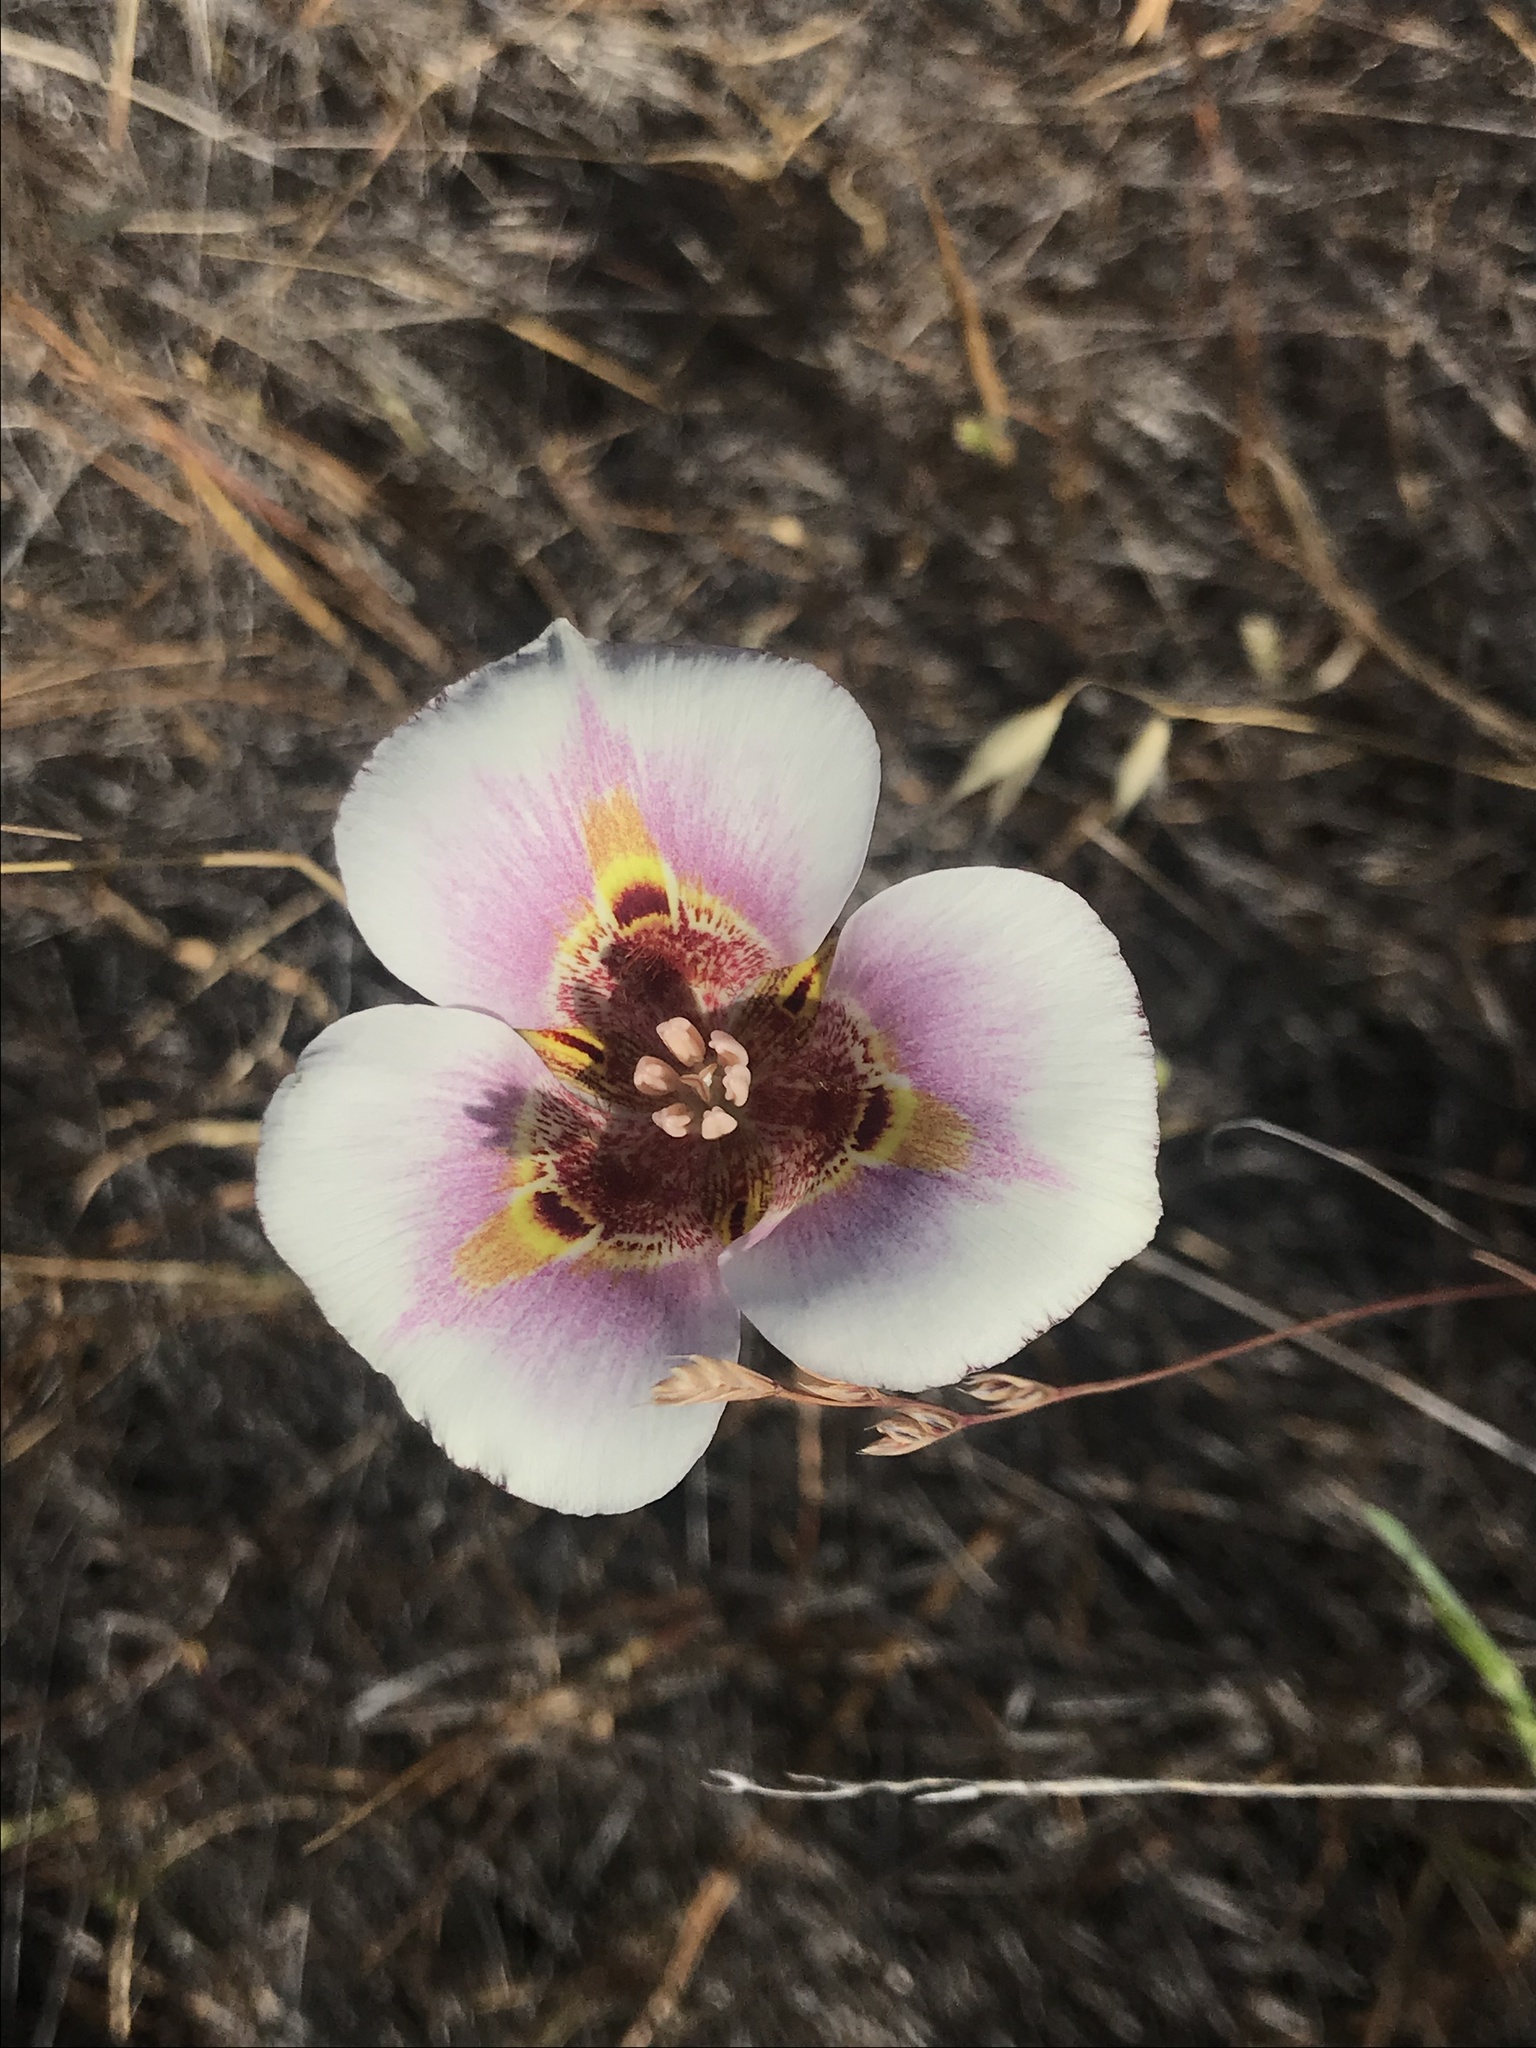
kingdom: Plantae
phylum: Tracheophyta
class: Liliopsida
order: Liliales
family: Liliaceae
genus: Calochortus
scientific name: Calochortus argillosus
